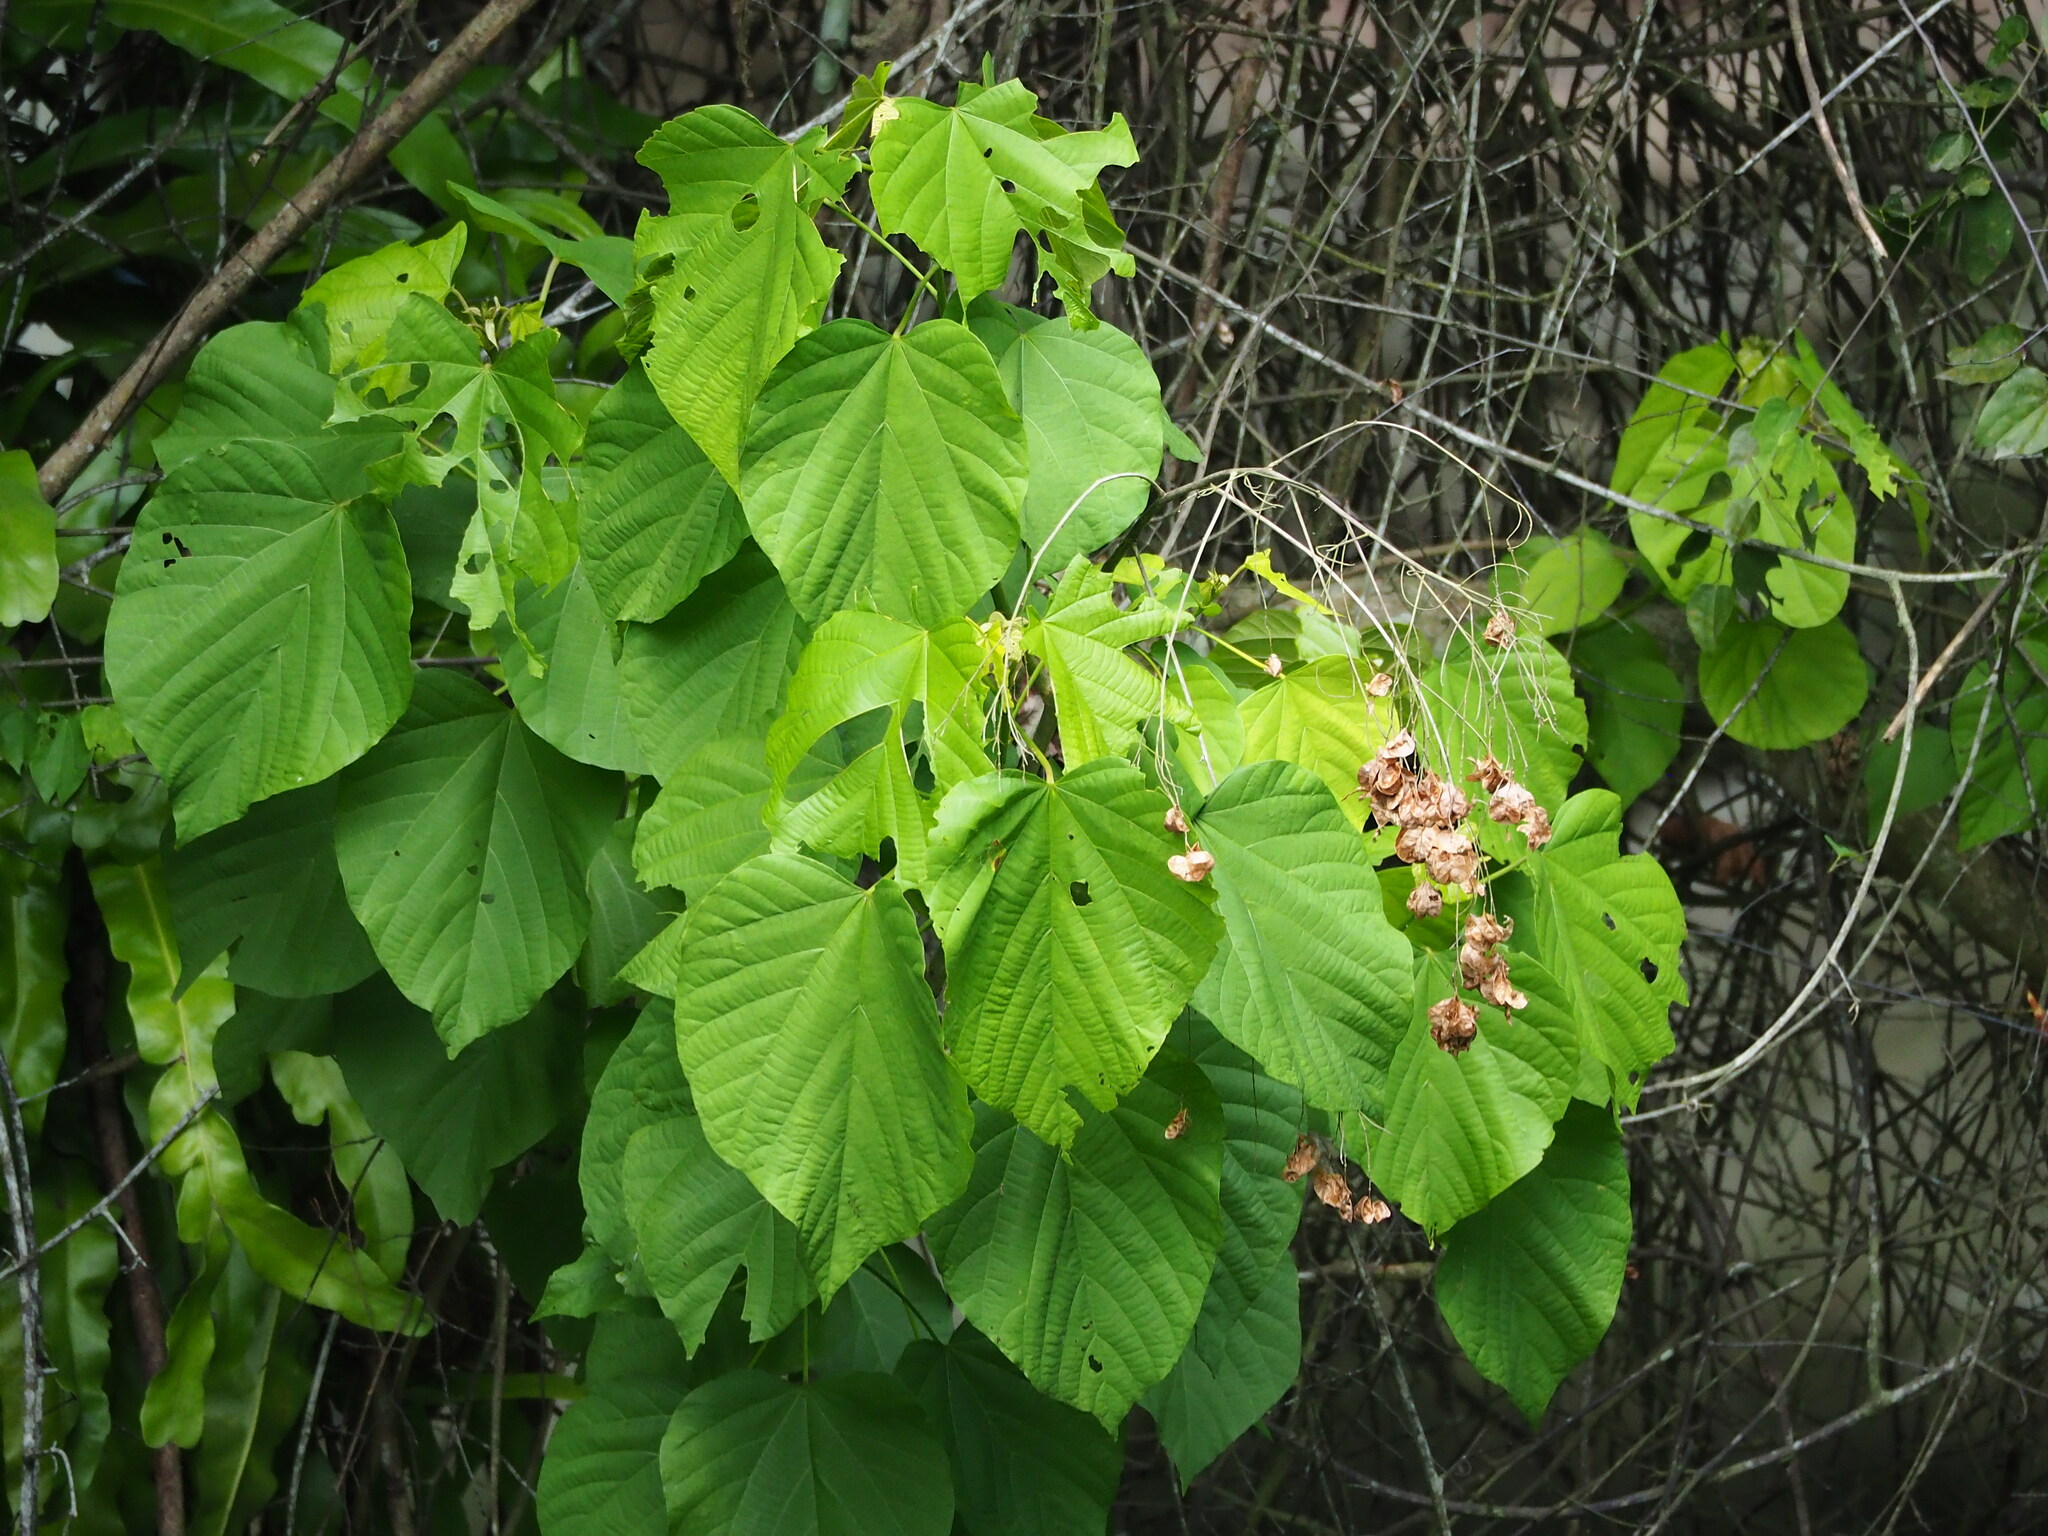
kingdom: Plantae
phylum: Tracheophyta
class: Magnoliopsida
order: Malvales
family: Malvaceae
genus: Kleinhovia
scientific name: Kleinhovia hospita
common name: Guest-tree
